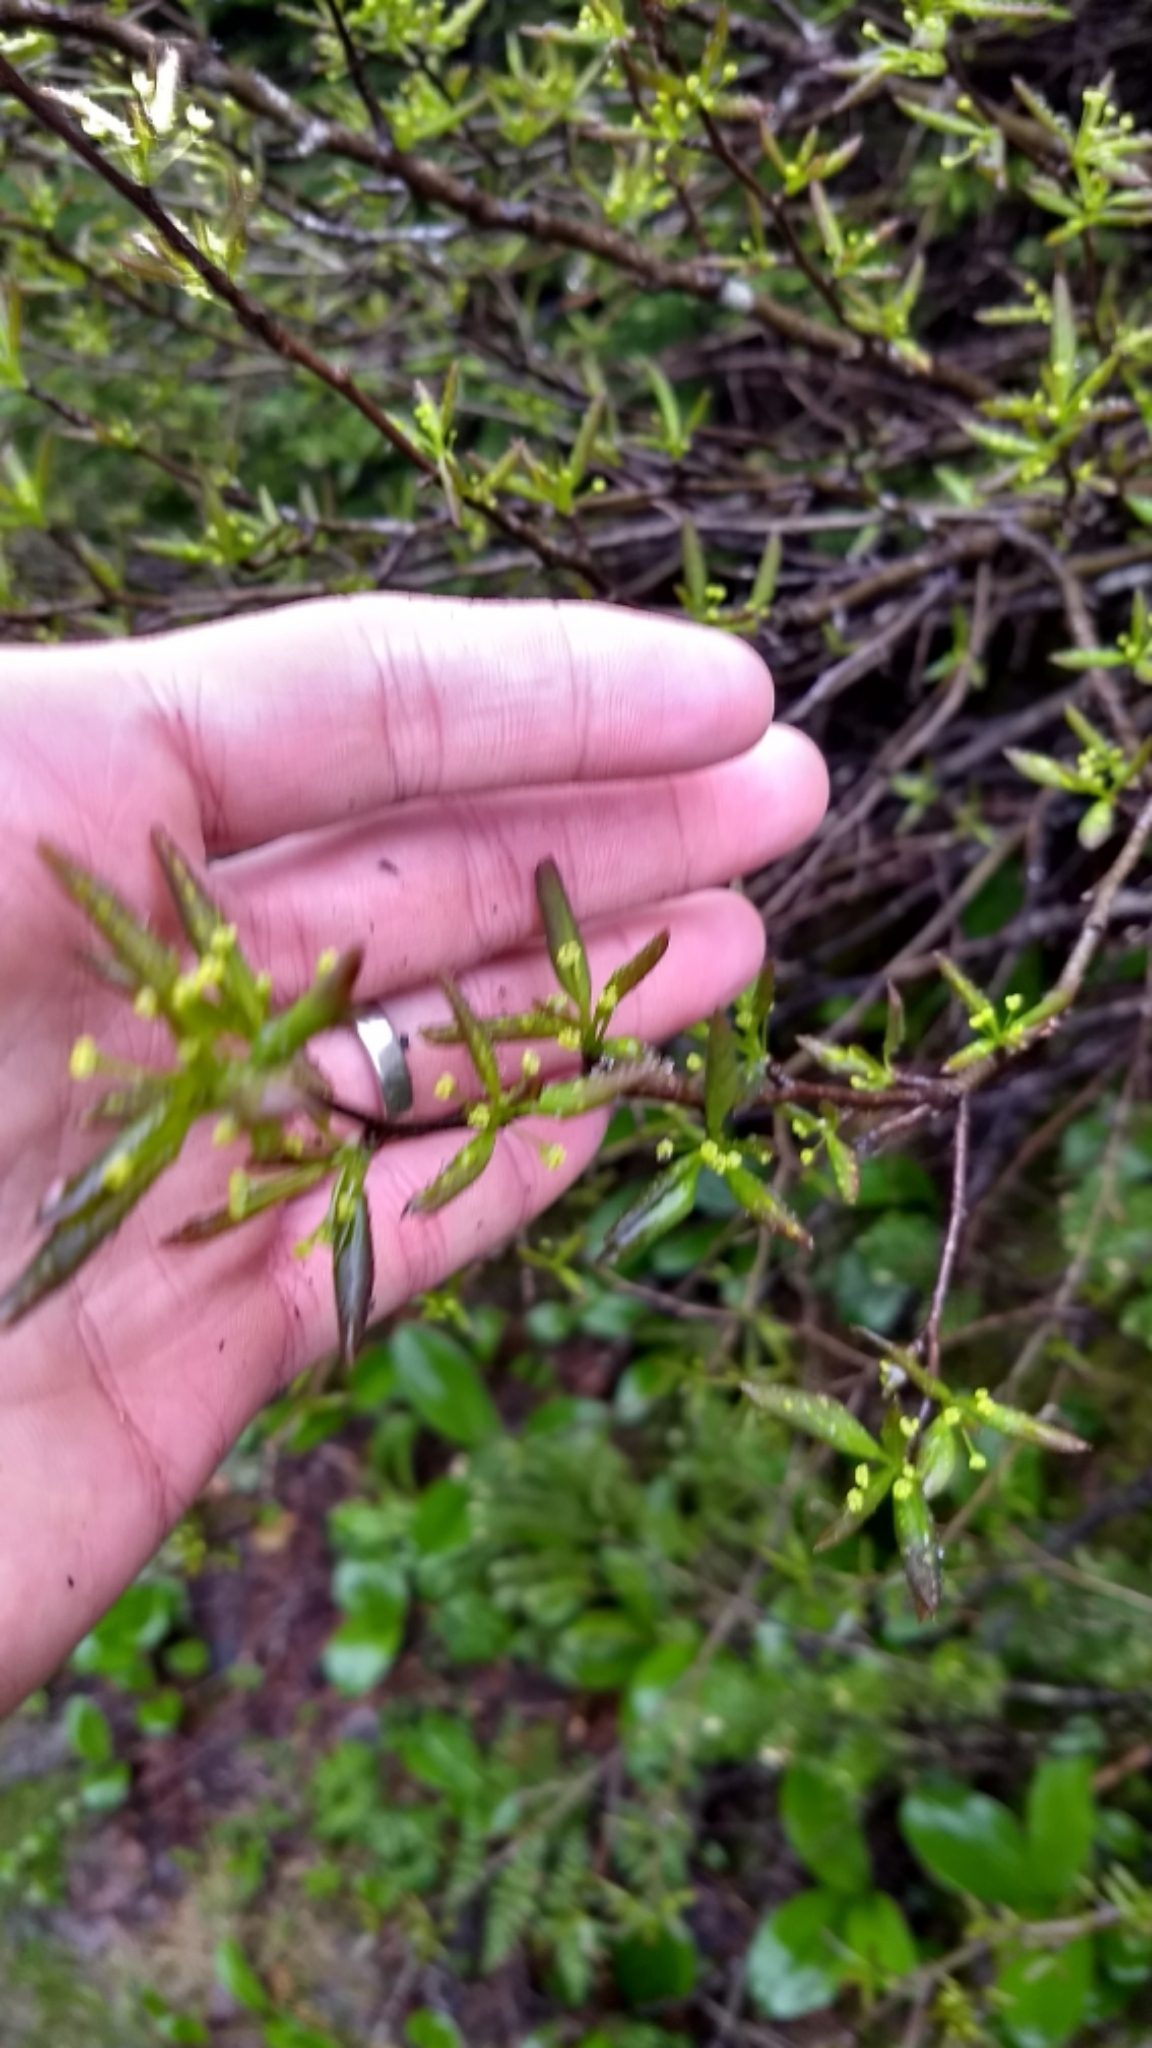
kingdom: Plantae
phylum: Tracheophyta
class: Magnoliopsida
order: Aquifoliales
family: Aquifoliaceae
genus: Ilex
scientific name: Ilex mucronata
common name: Catberry
